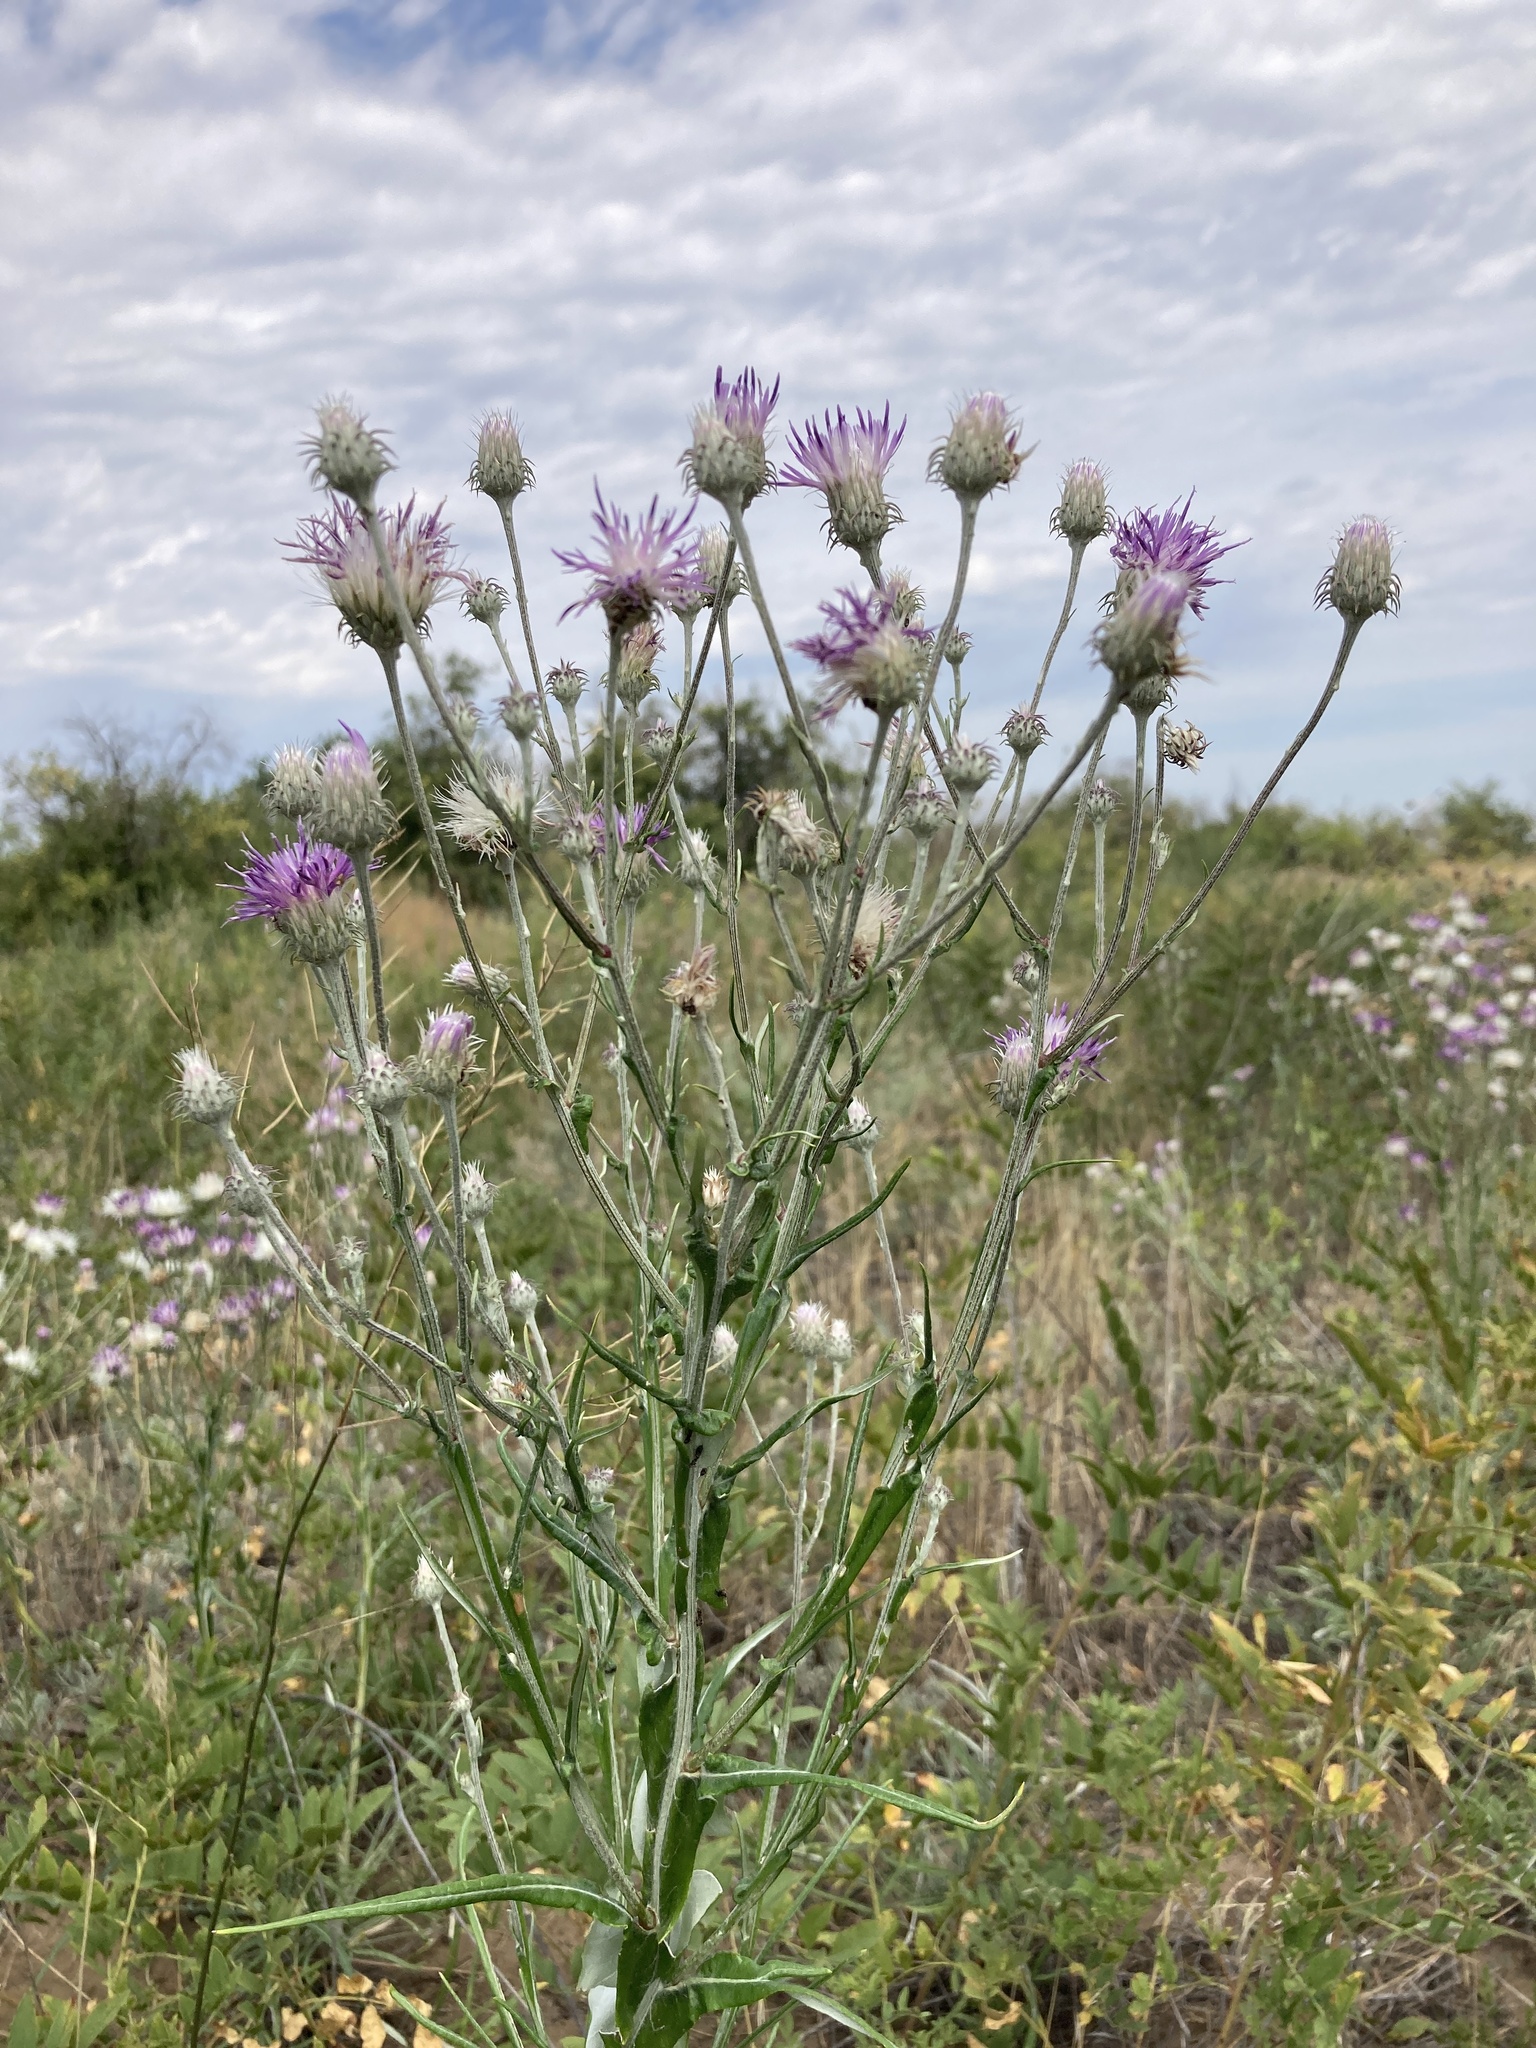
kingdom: Plantae
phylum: Tracheophyta
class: Magnoliopsida
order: Asterales
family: Asteraceae
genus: Jurinea
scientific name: Jurinea multiflora
